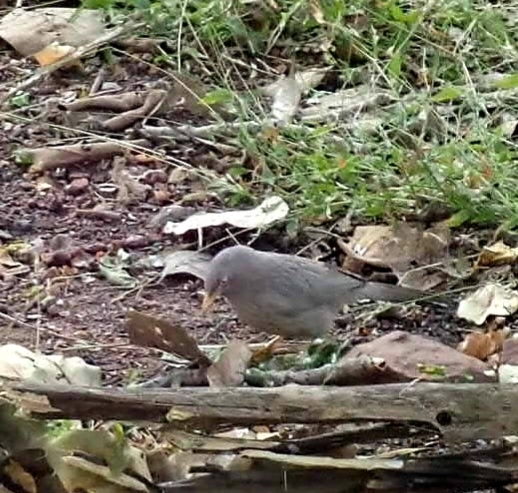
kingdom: Animalia
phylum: Chordata
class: Aves
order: Passeriformes
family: Leiothrichidae
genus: Turdoides
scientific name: Turdoides striata
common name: Jungle babbler
